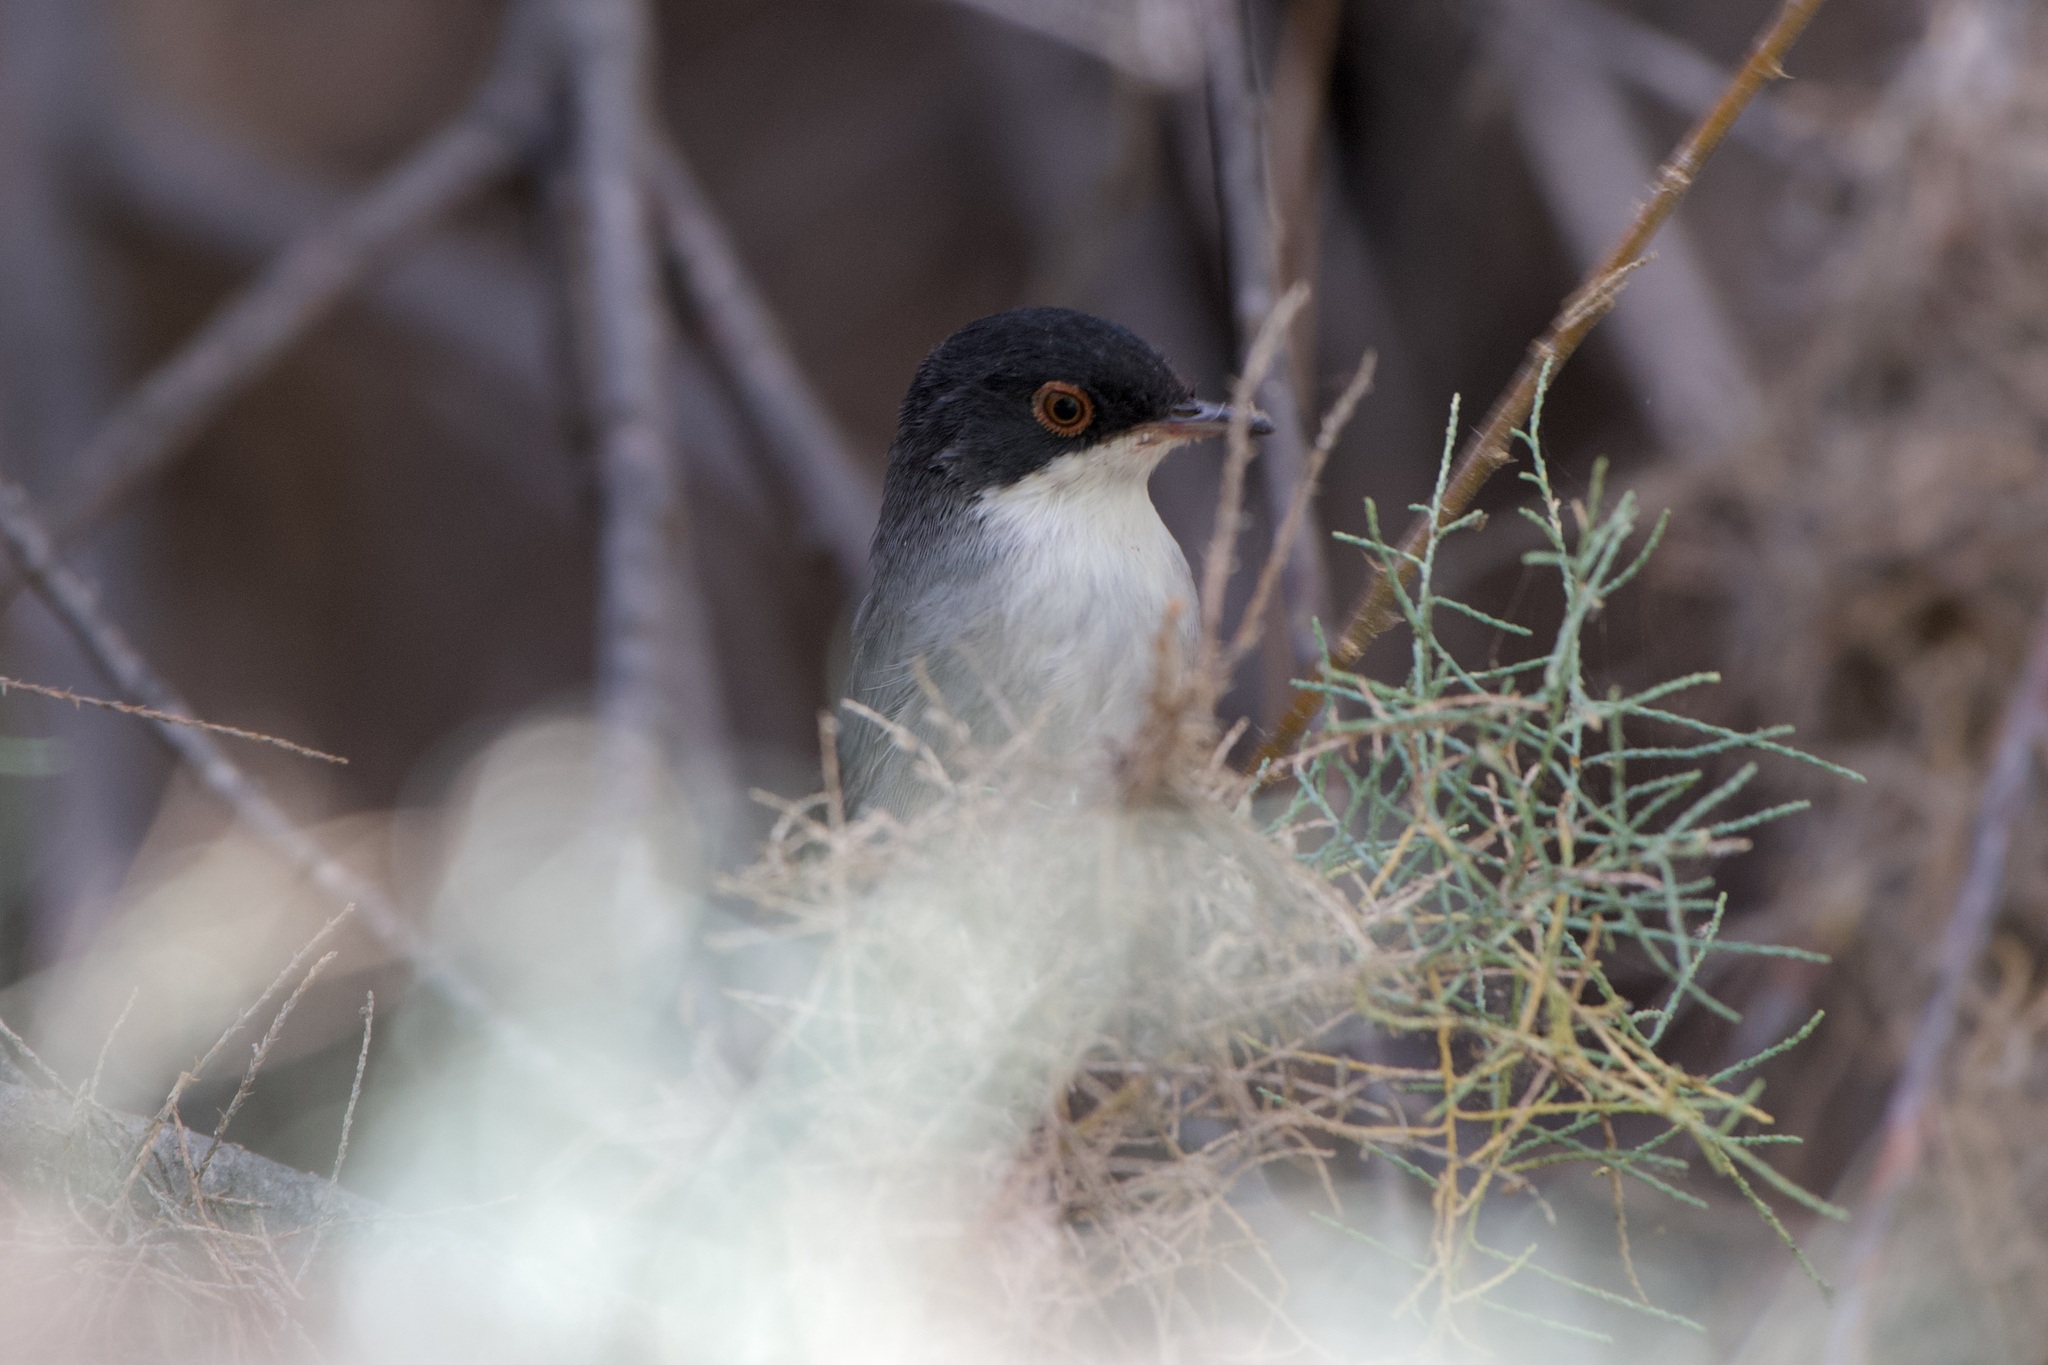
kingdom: Animalia
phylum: Chordata
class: Aves
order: Passeriformes
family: Sylviidae
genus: Curruca
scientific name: Curruca melanocephala
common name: Sardinian warbler
